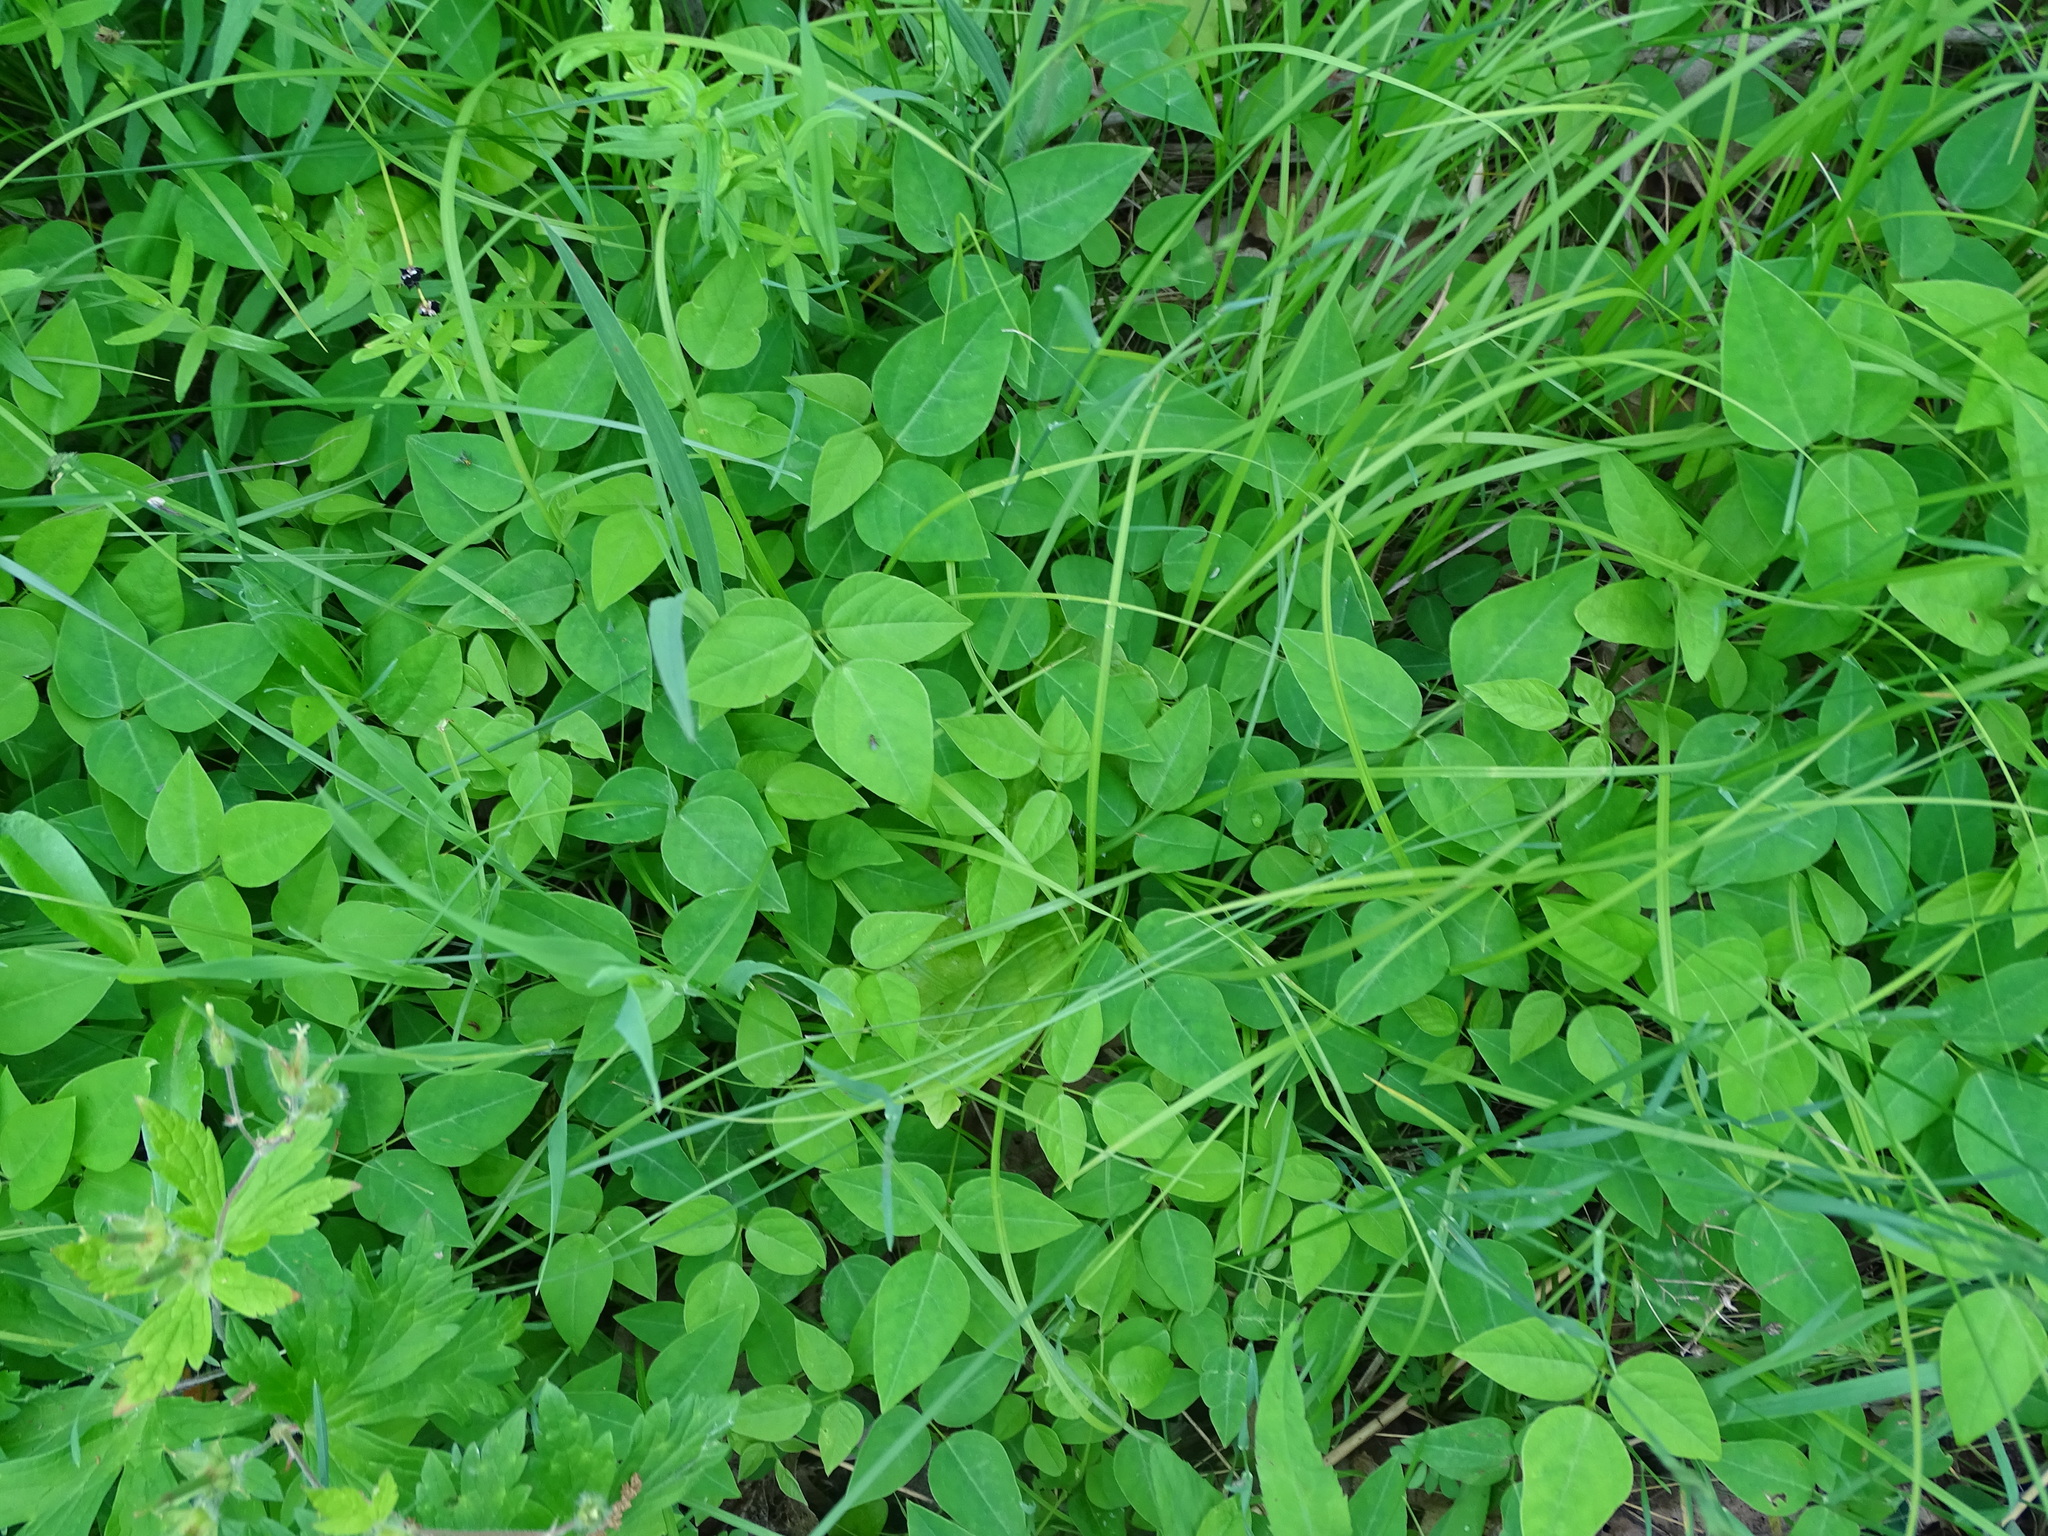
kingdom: Plantae
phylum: Tracheophyta
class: Magnoliopsida
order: Fabales
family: Fabaceae
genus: Amphicarpaea
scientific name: Amphicarpaea bracteata
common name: American hog peanut
